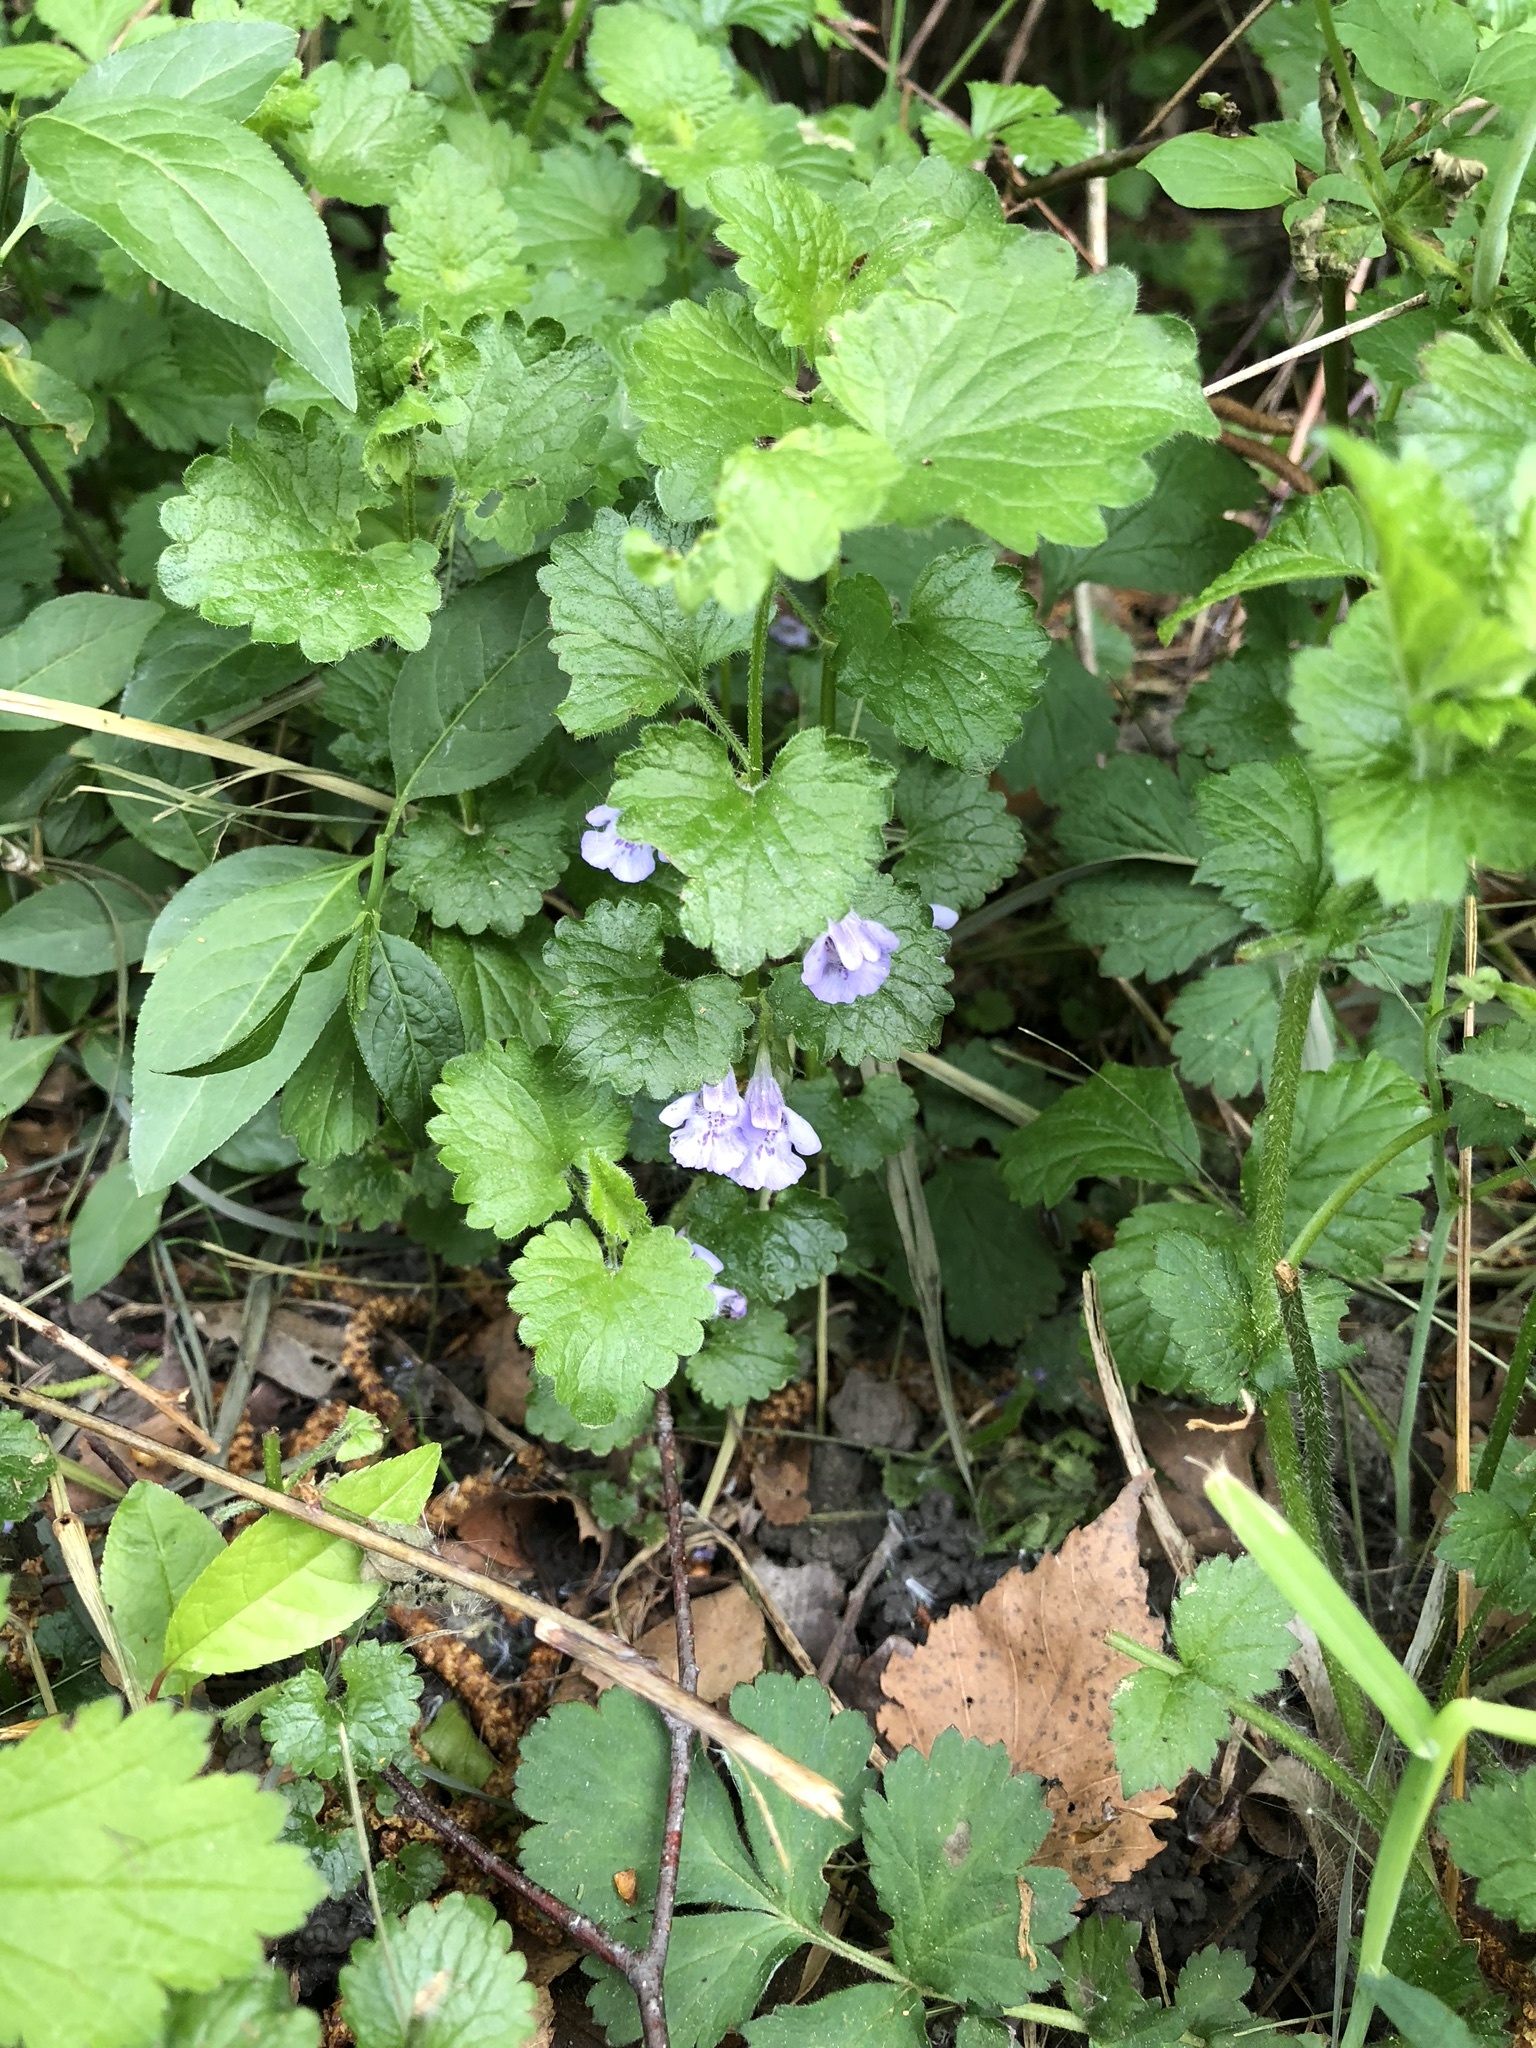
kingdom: Plantae
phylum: Tracheophyta
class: Magnoliopsida
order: Lamiales
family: Lamiaceae
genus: Glechoma
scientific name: Glechoma hederacea
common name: Ground ivy
